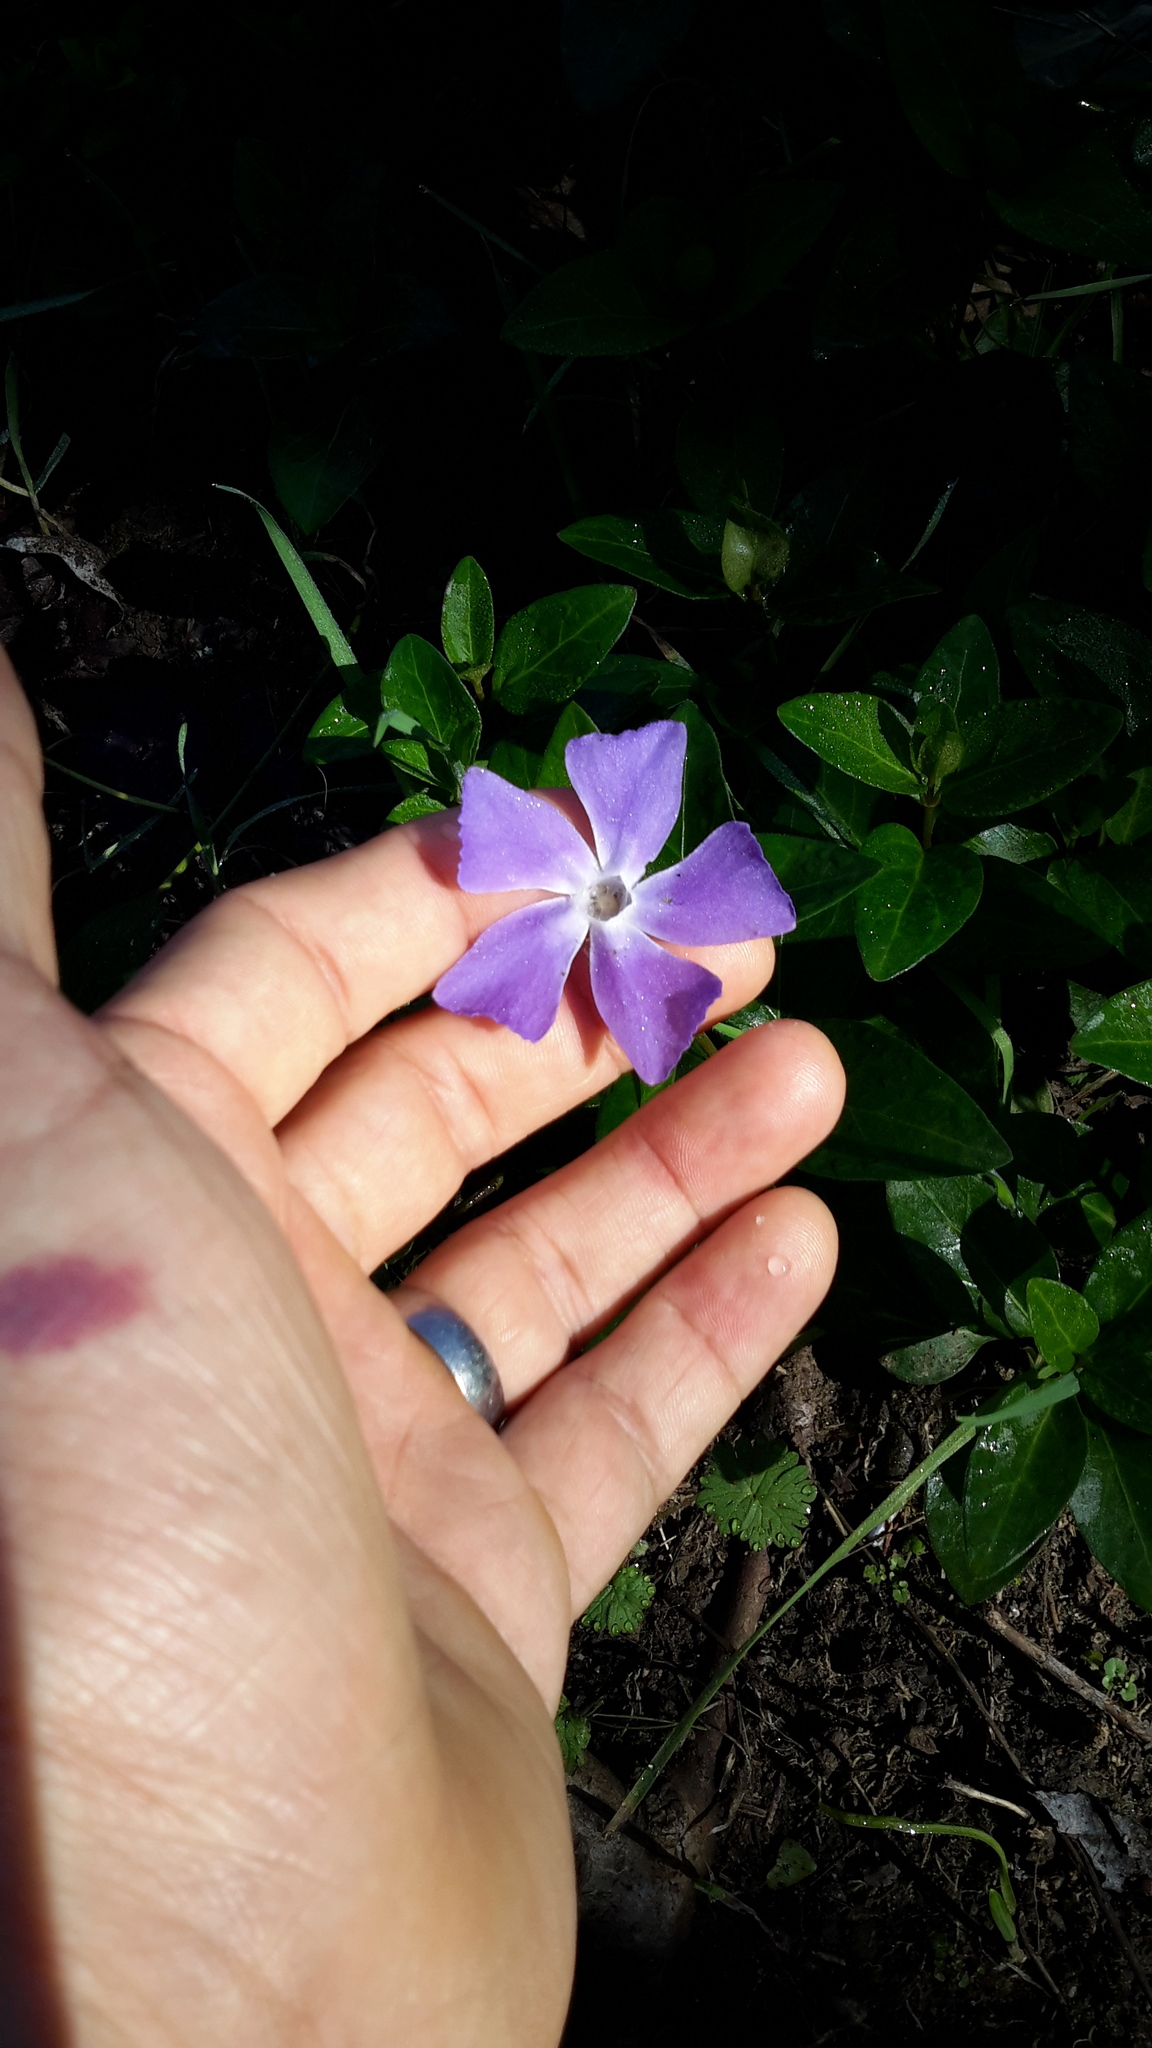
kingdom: Plantae
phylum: Tracheophyta
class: Magnoliopsida
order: Gentianales
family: Apocynaceae
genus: Vinca
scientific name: Vinca major
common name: Greater periwinkle
